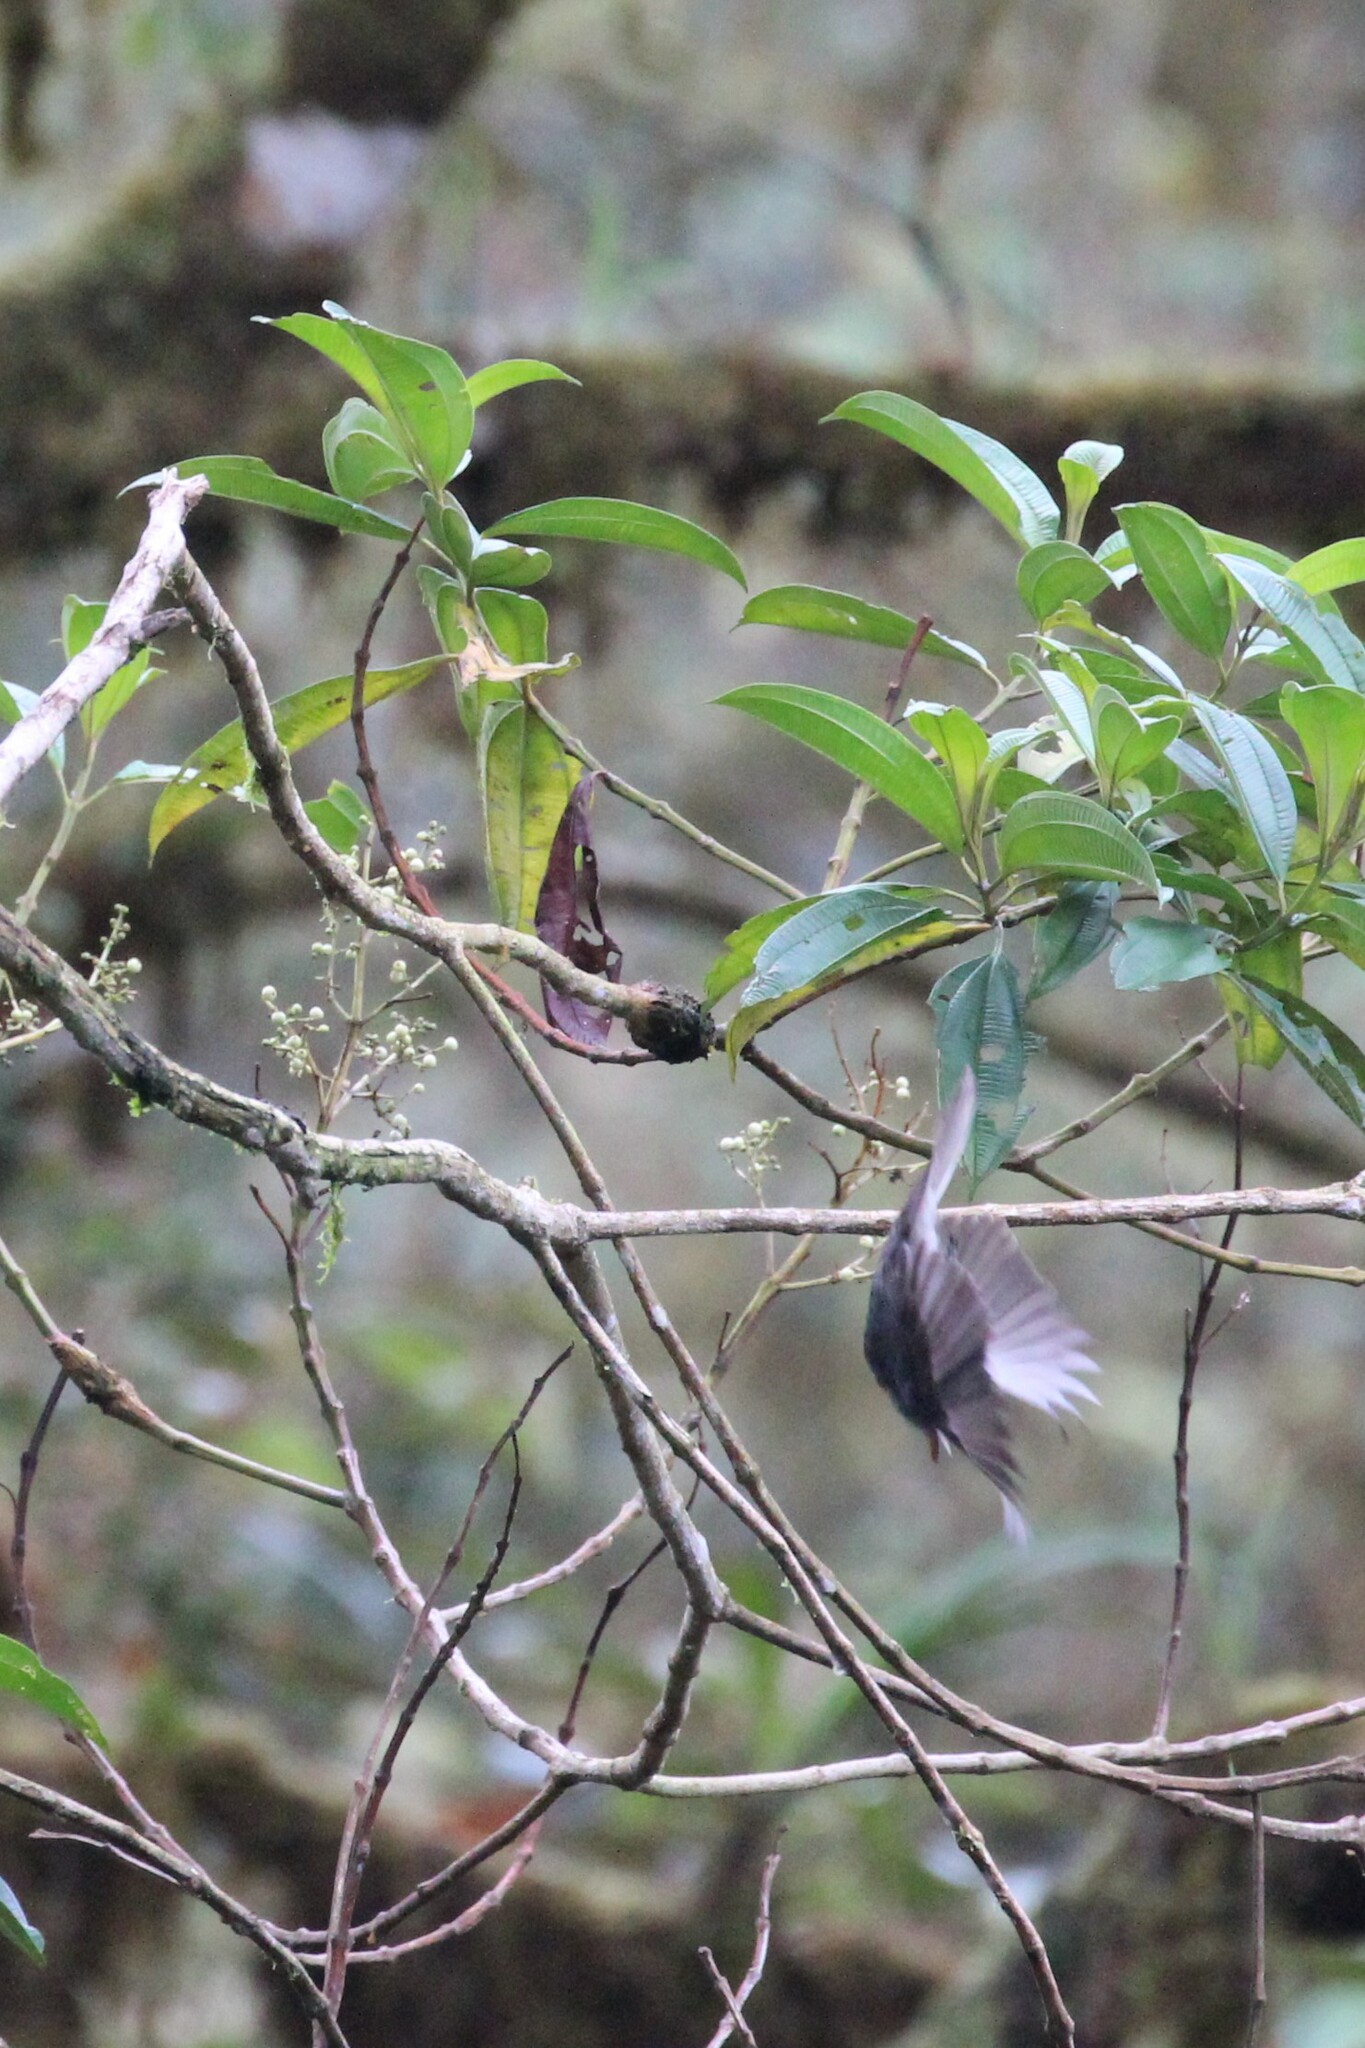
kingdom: Animalia
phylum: Chordata
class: Aves
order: Passeriformes
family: Tyrannidae
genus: Contopus
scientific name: Contopus fumigatus
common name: Smoke-colored pewee
